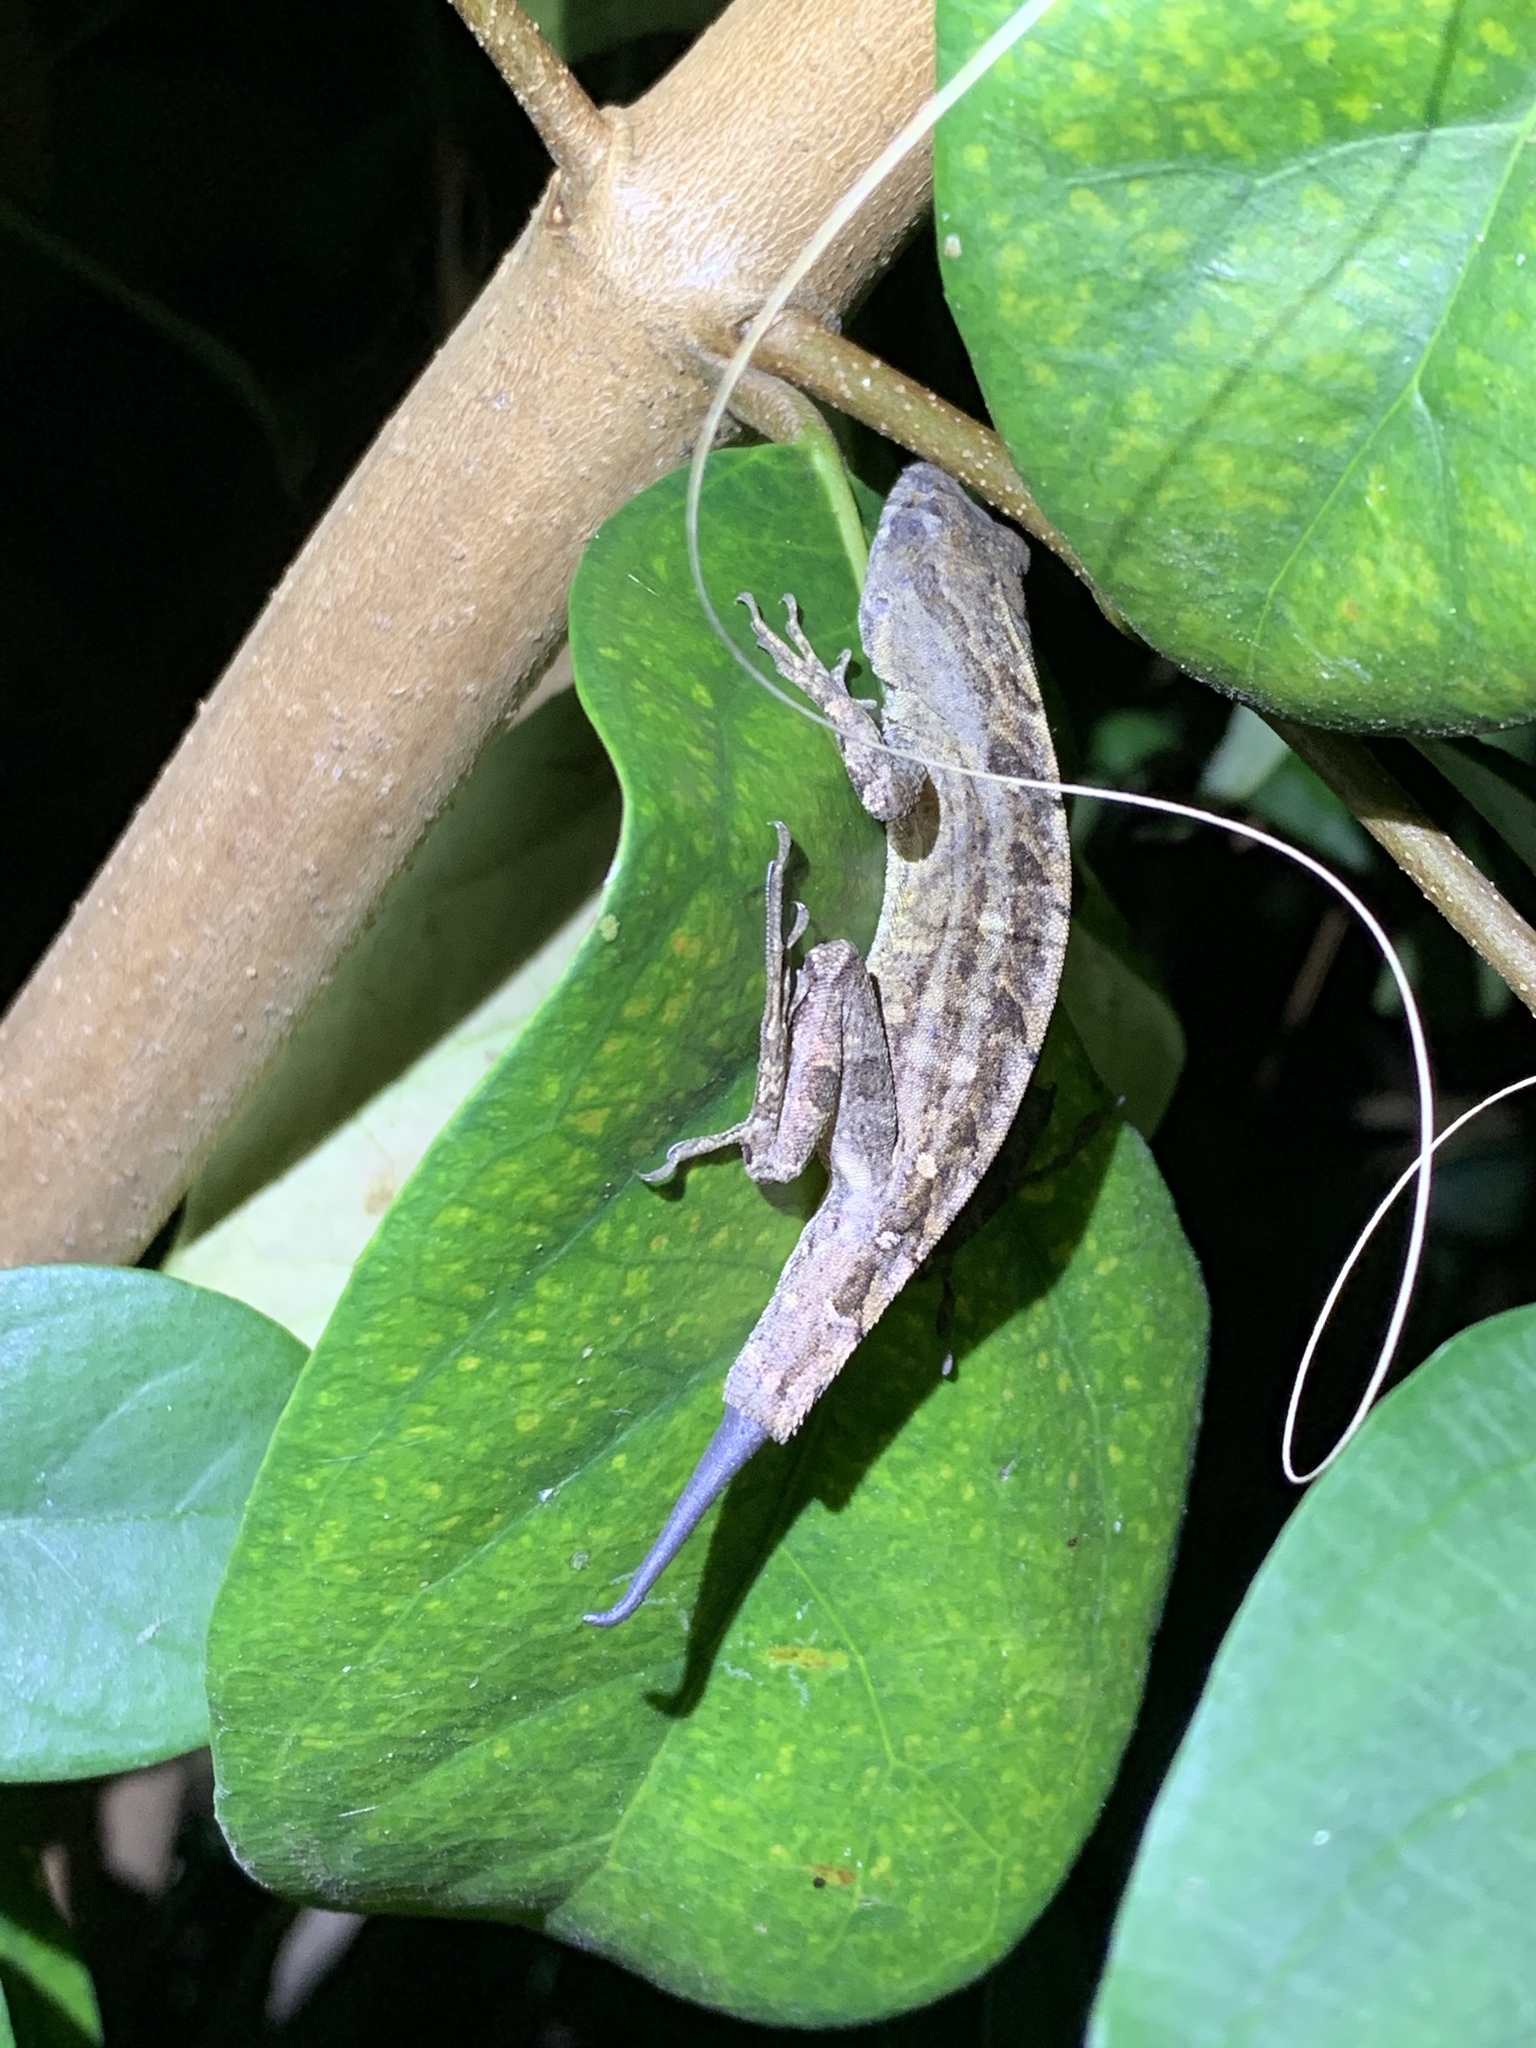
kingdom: Animalia
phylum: Chordata
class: Squamata
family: Dactyloidae
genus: Anolis
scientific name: Anolis sagrei
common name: Brown anole
